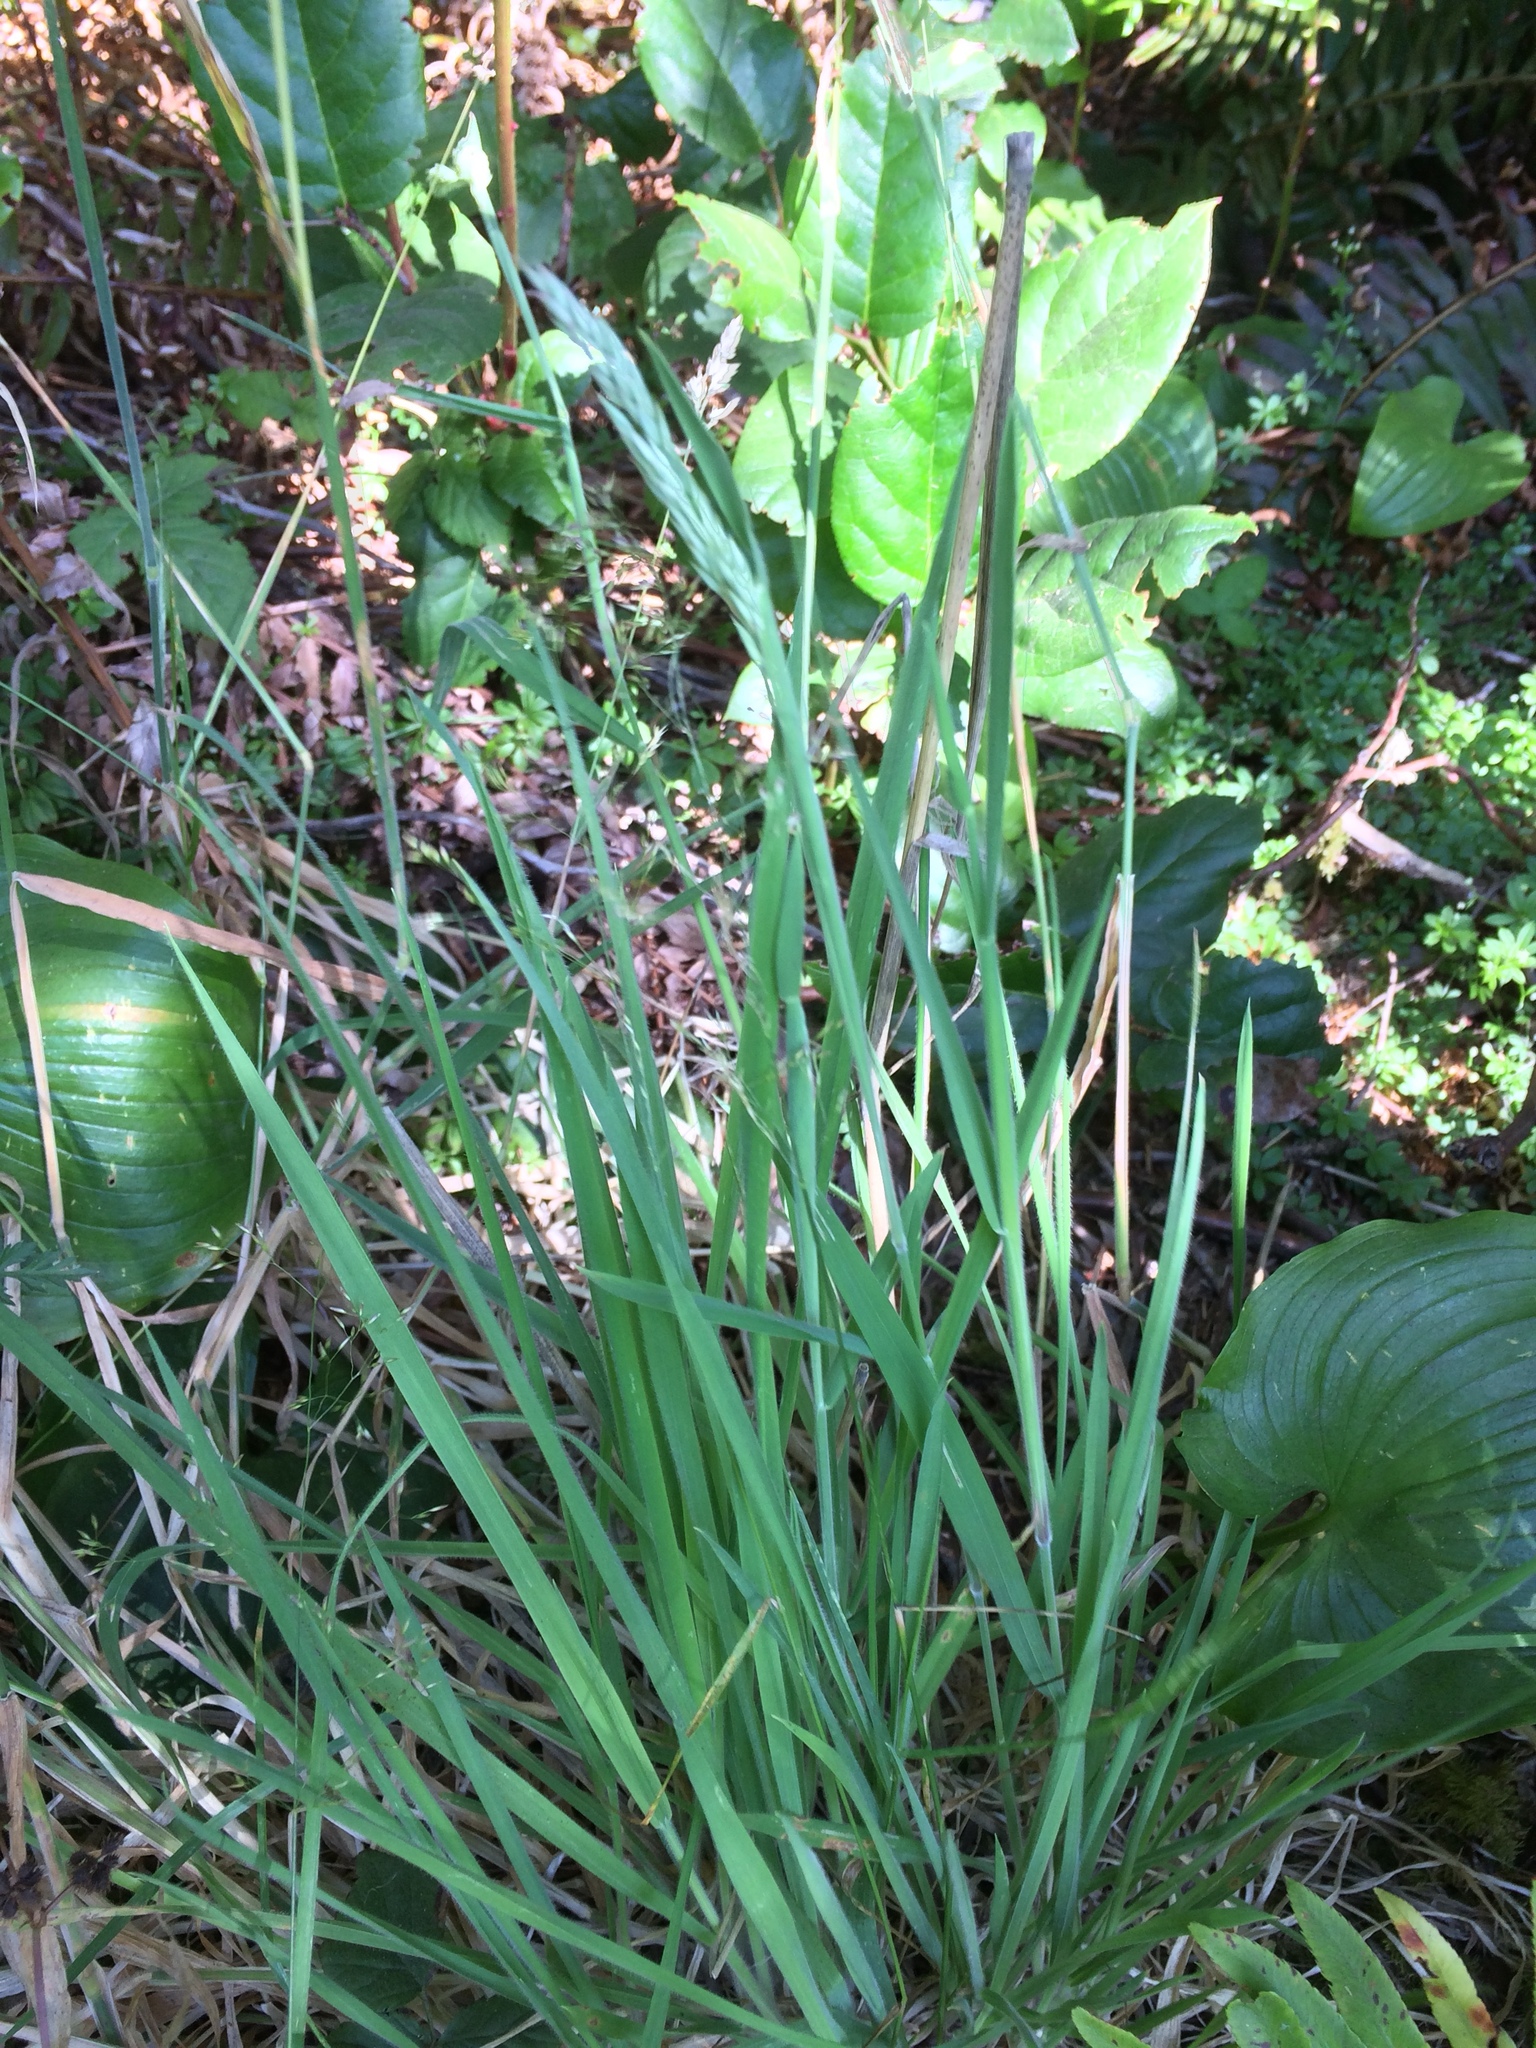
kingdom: Plantae
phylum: Tracheophyta
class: Liliopsida
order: Poales
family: Poaceae
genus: Holcus
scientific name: Holcus lanatus
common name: Yorkshire-fog
